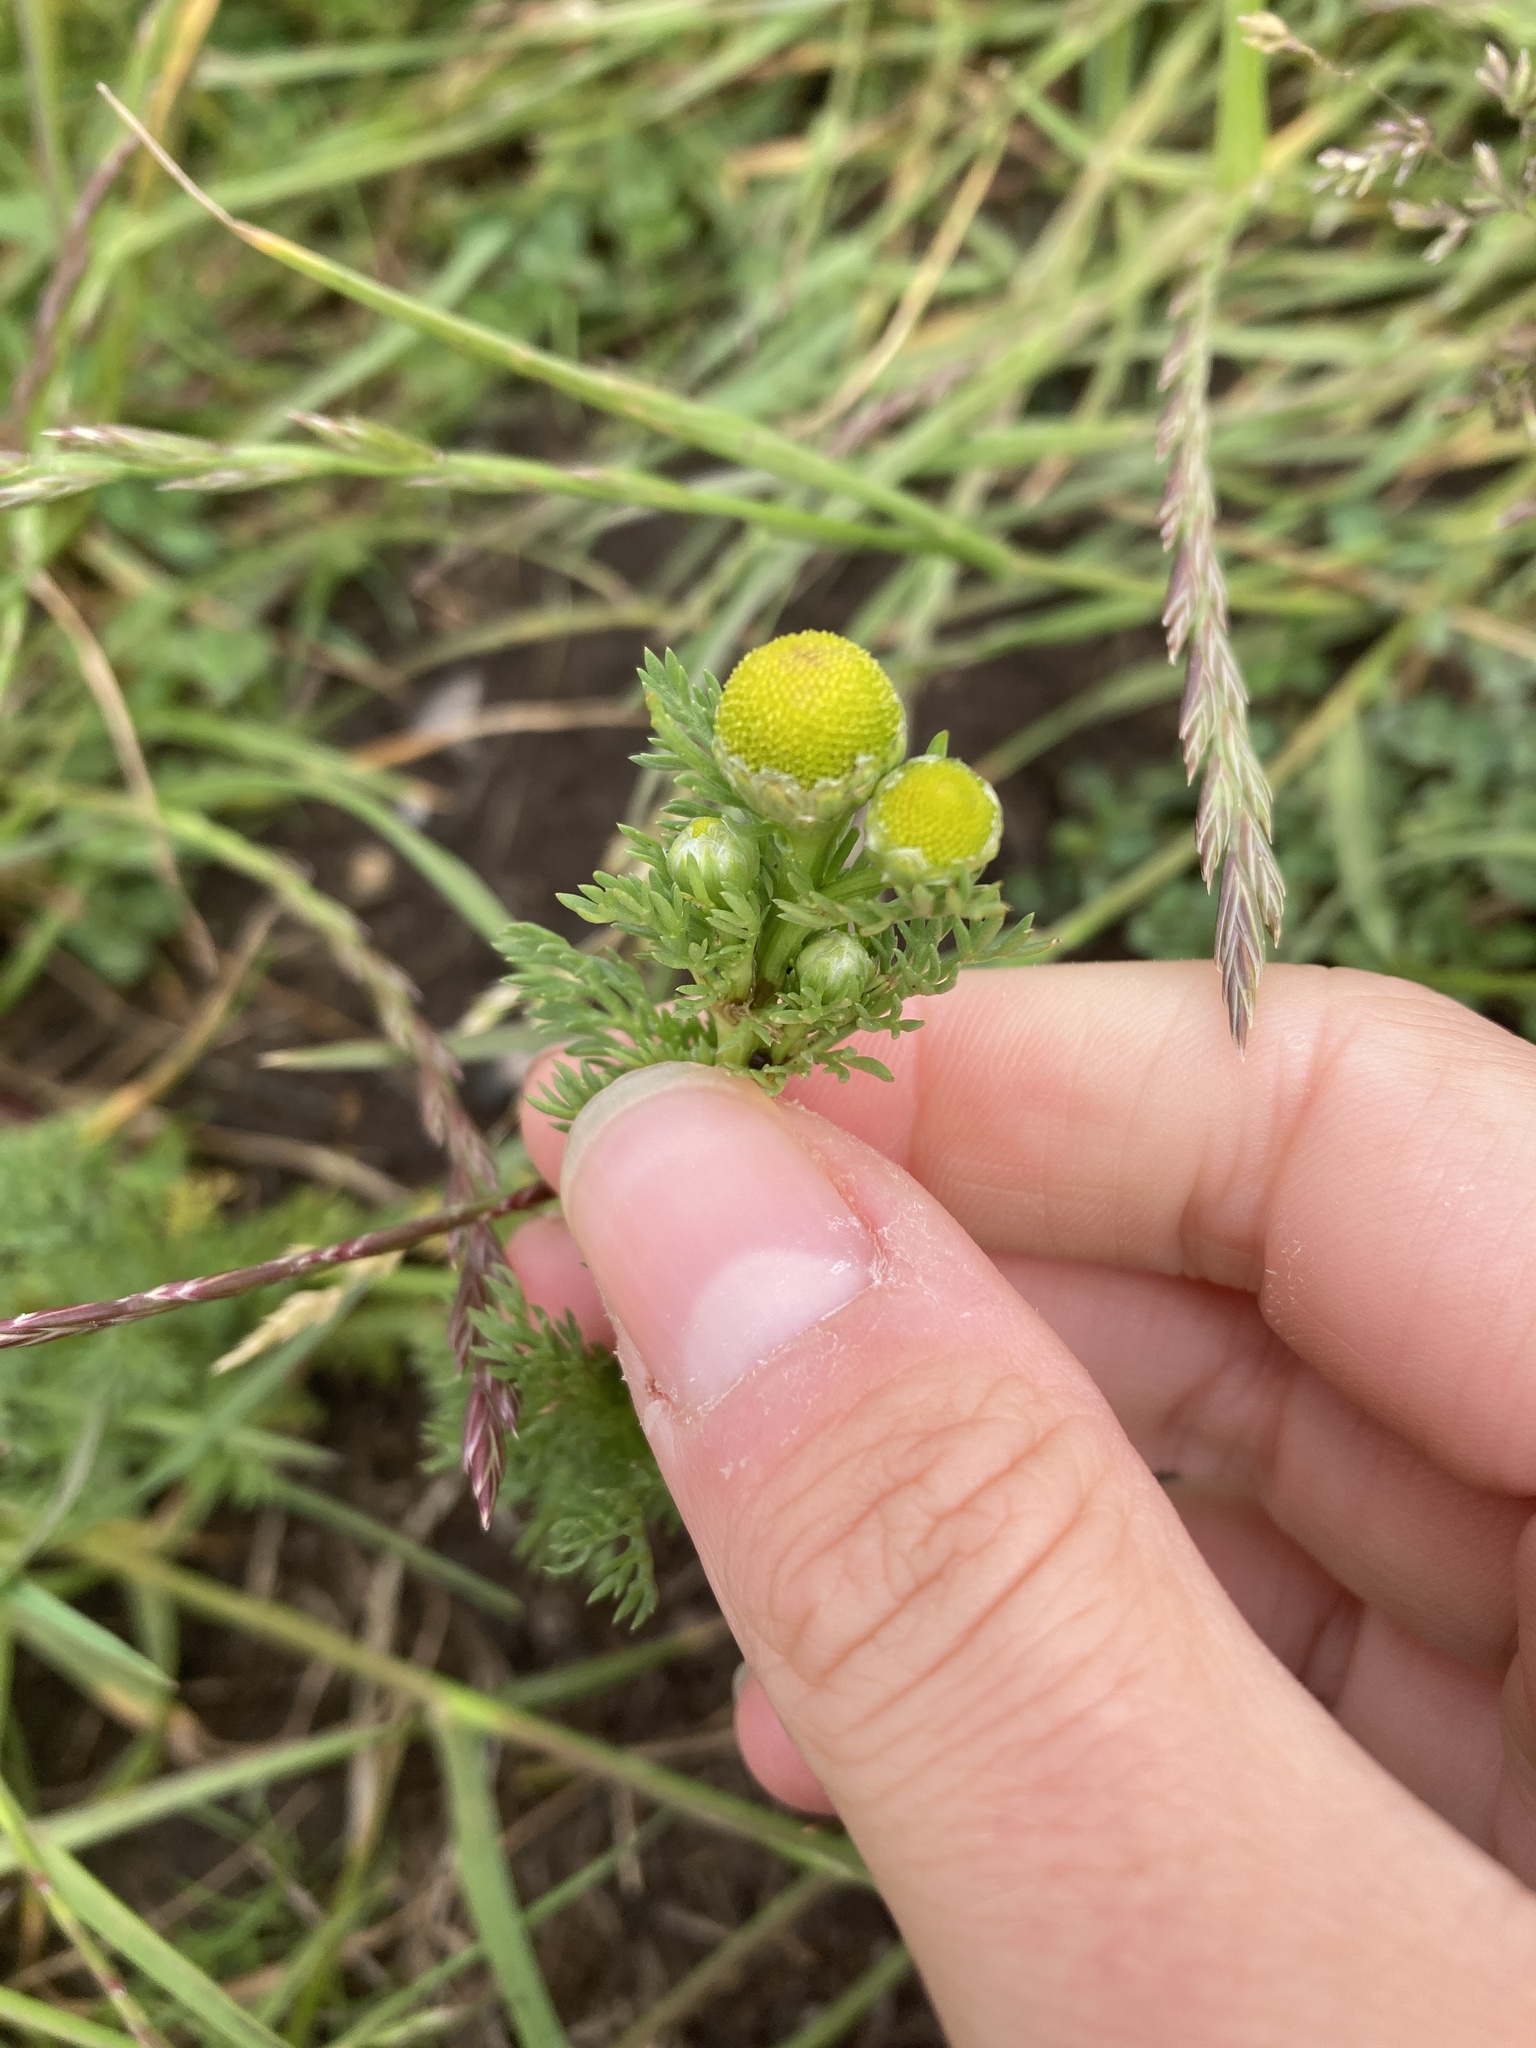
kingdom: Plantae
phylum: Tracheophyta
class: Magnoliopsida
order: Asterales
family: Asteraceae
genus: Matricaria
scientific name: Matricaria discoidea
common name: Disc mayweed
